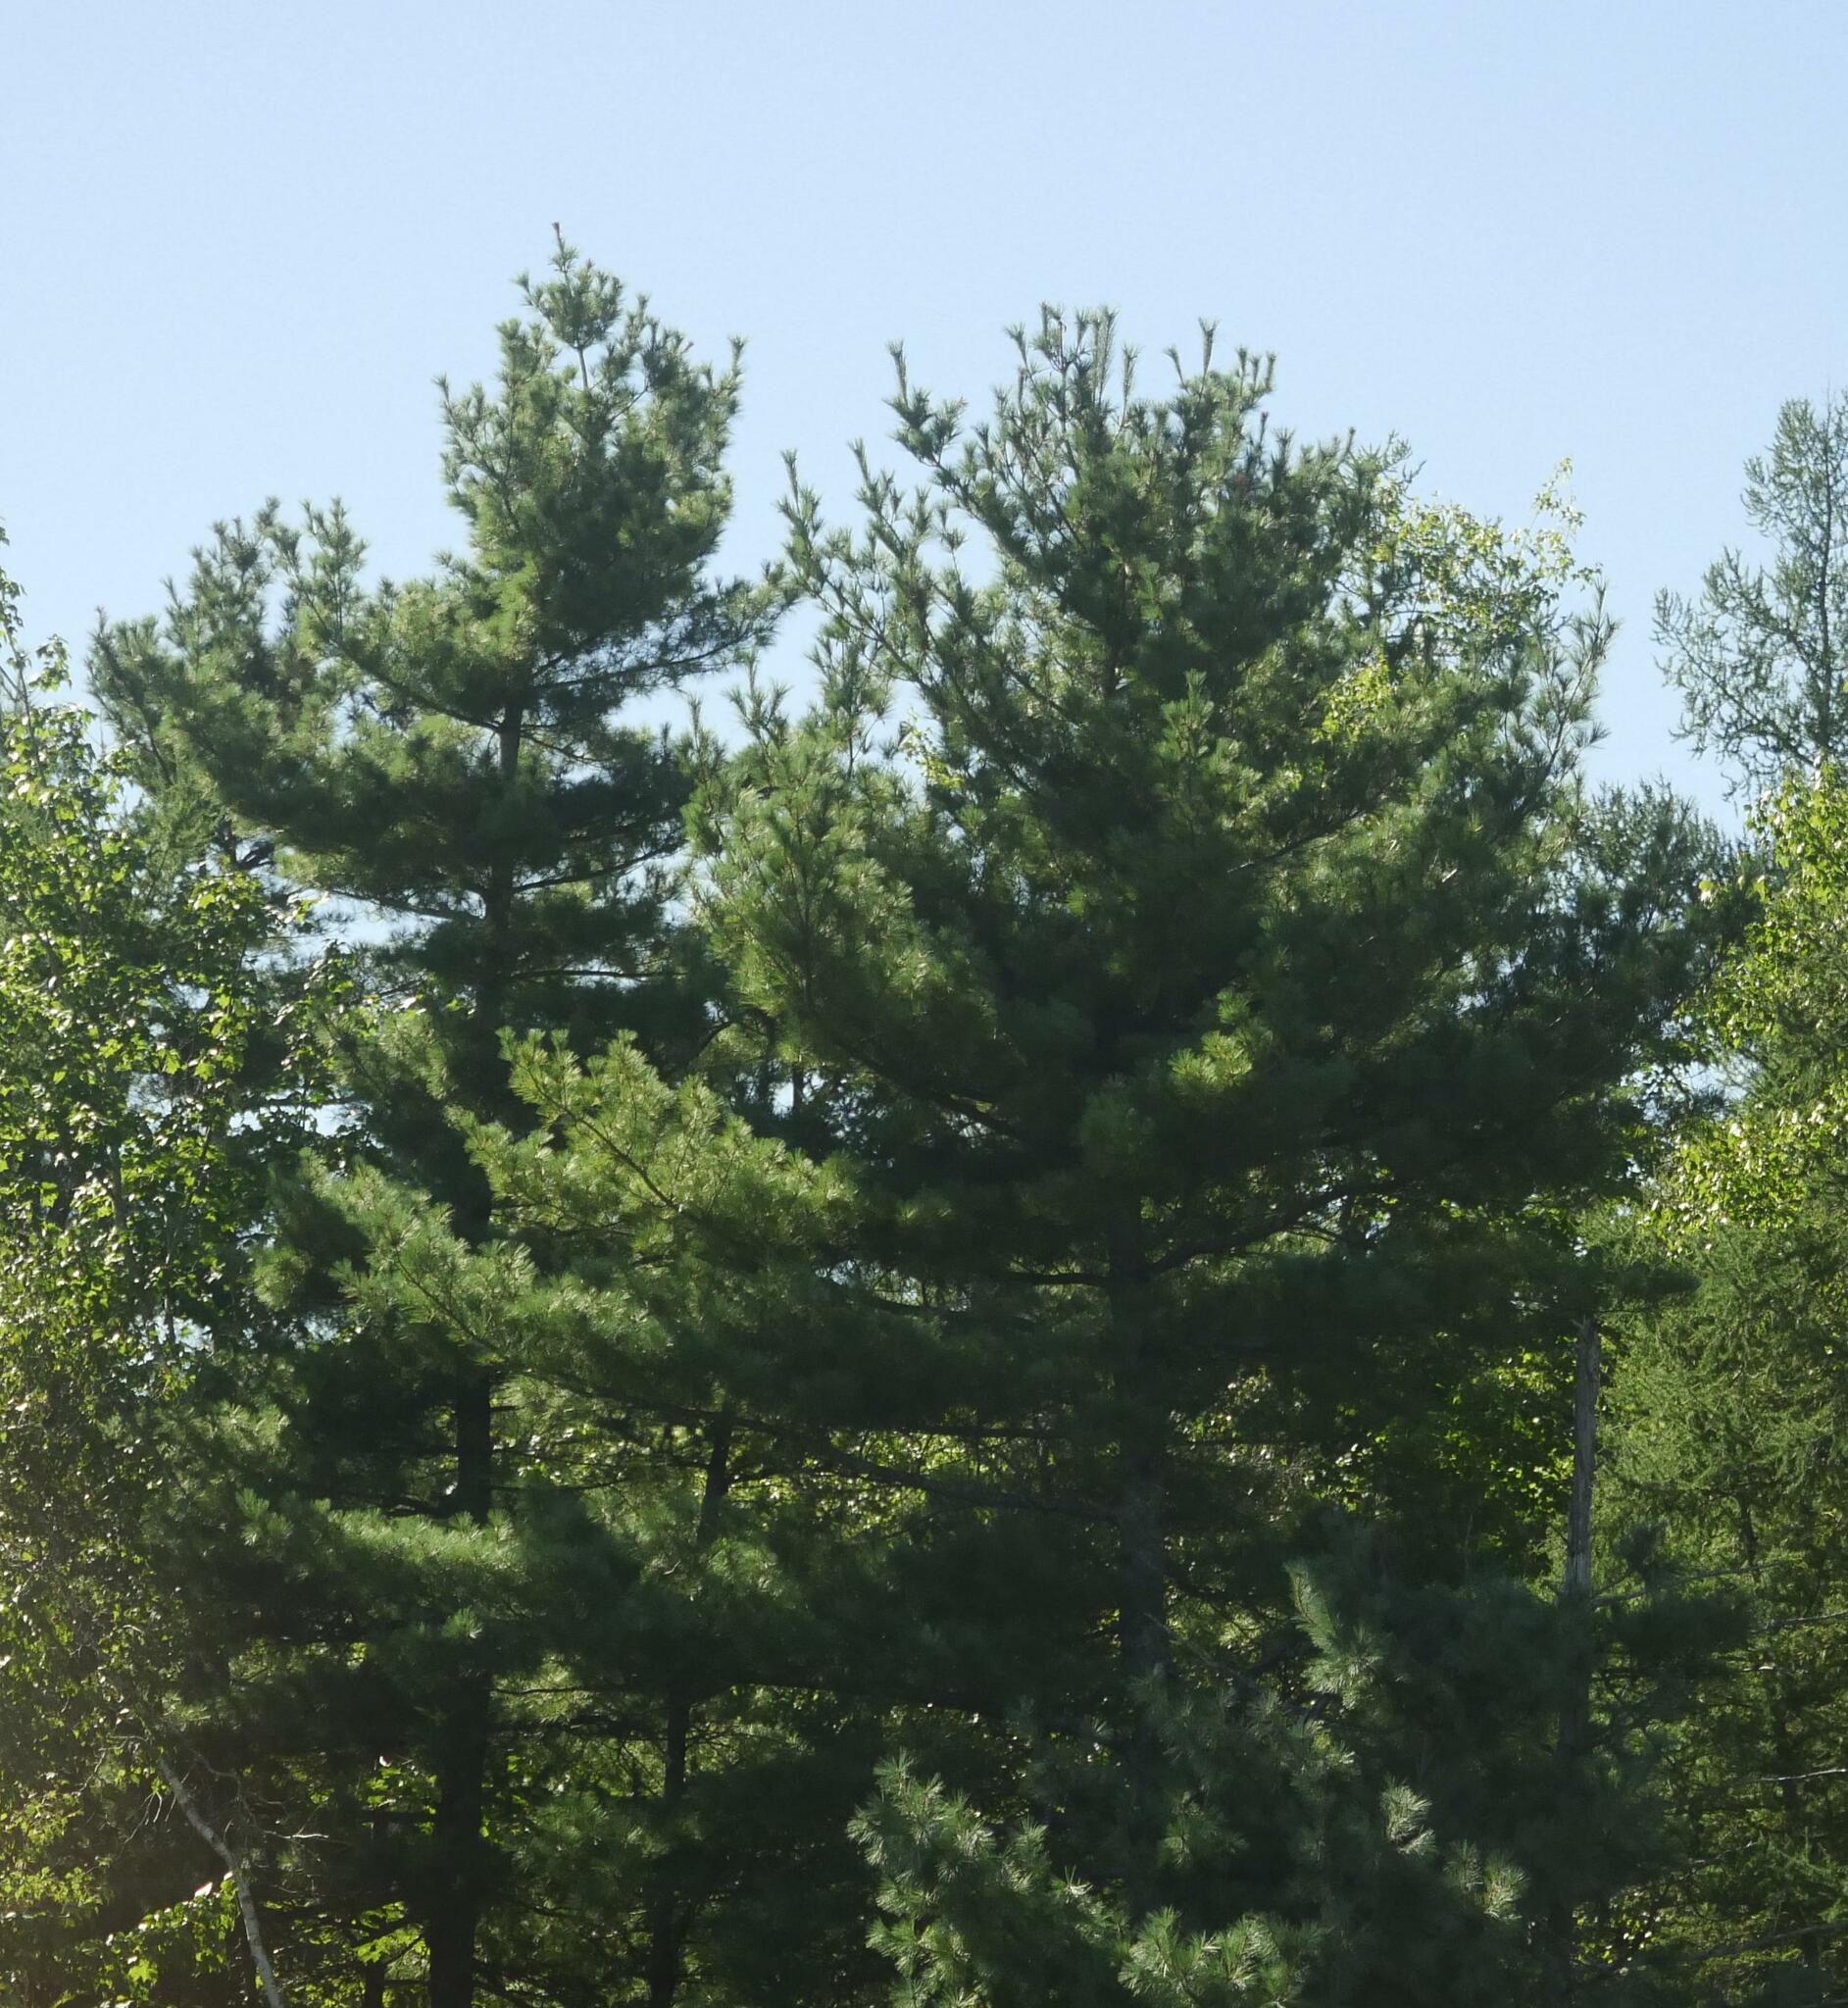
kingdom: Plantae
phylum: Tracheophyta
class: Pinopsida
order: Pinales
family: Pinaceae
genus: Pinus
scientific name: Pinus strobus
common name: Weymouth pine
